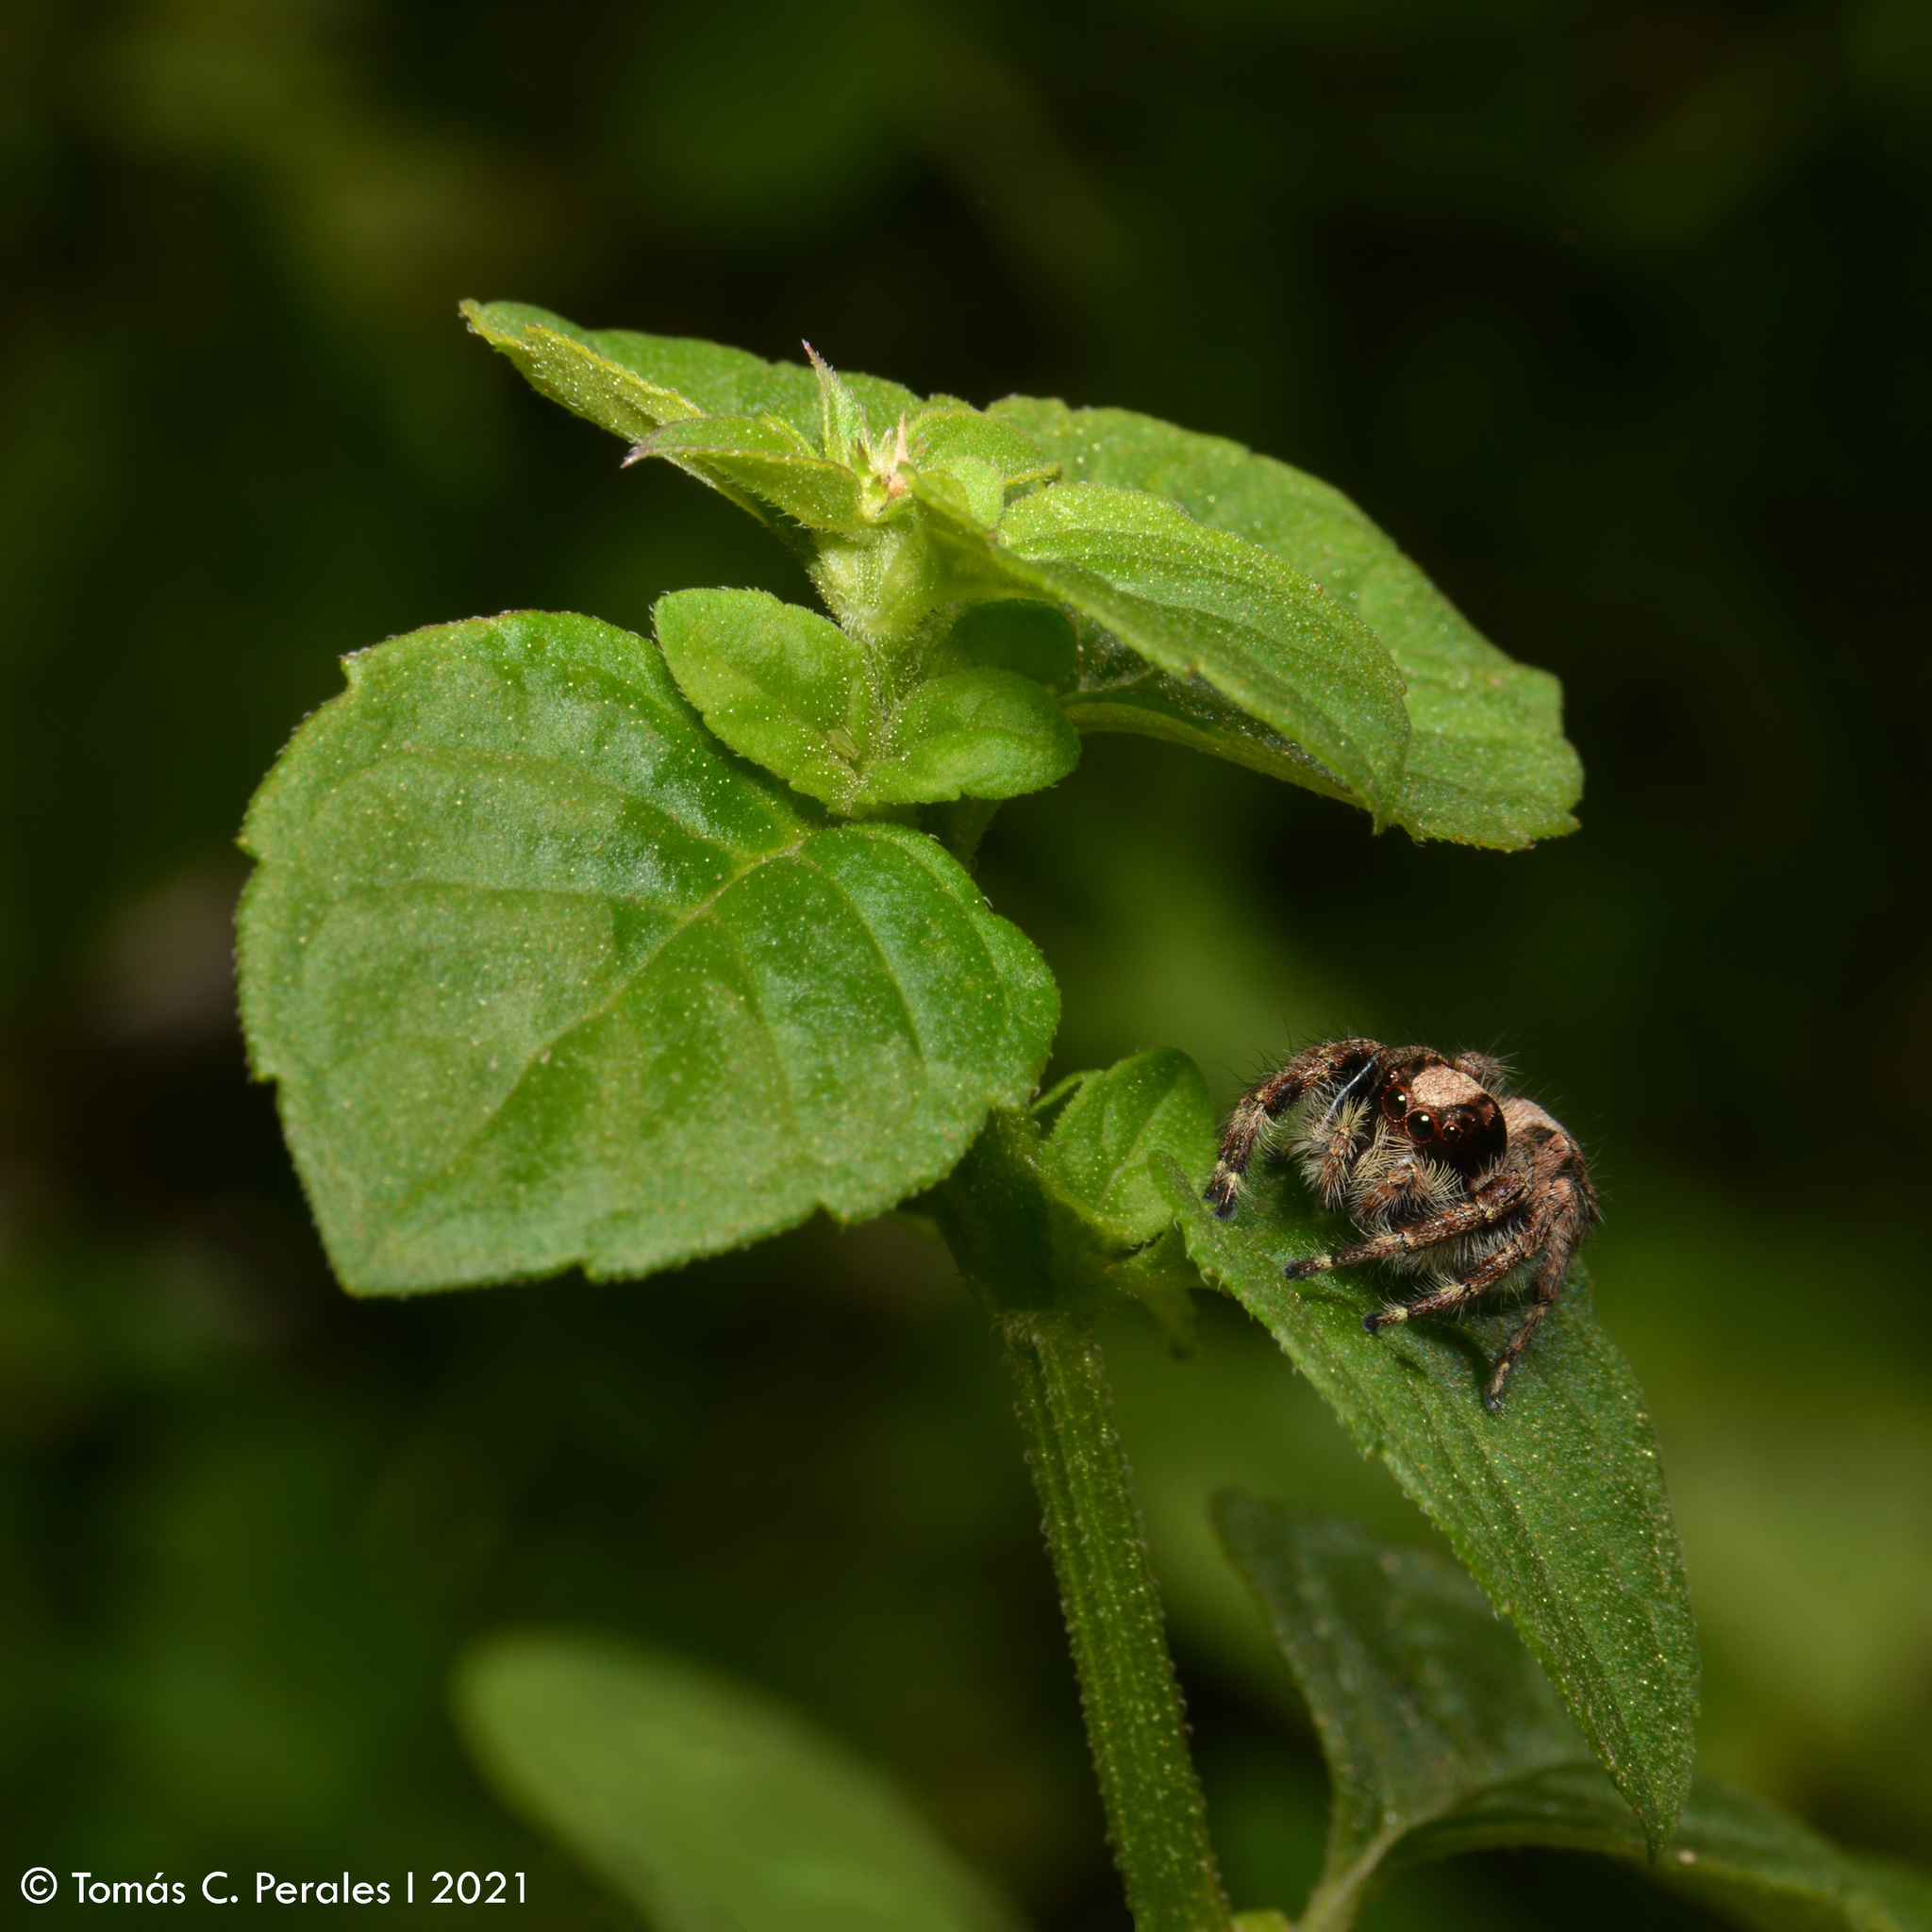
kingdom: Animalia
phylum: Arthropoda
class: Arachnida
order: Araneae
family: Salticidae
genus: Megafreya
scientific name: Megafreya sutrix
